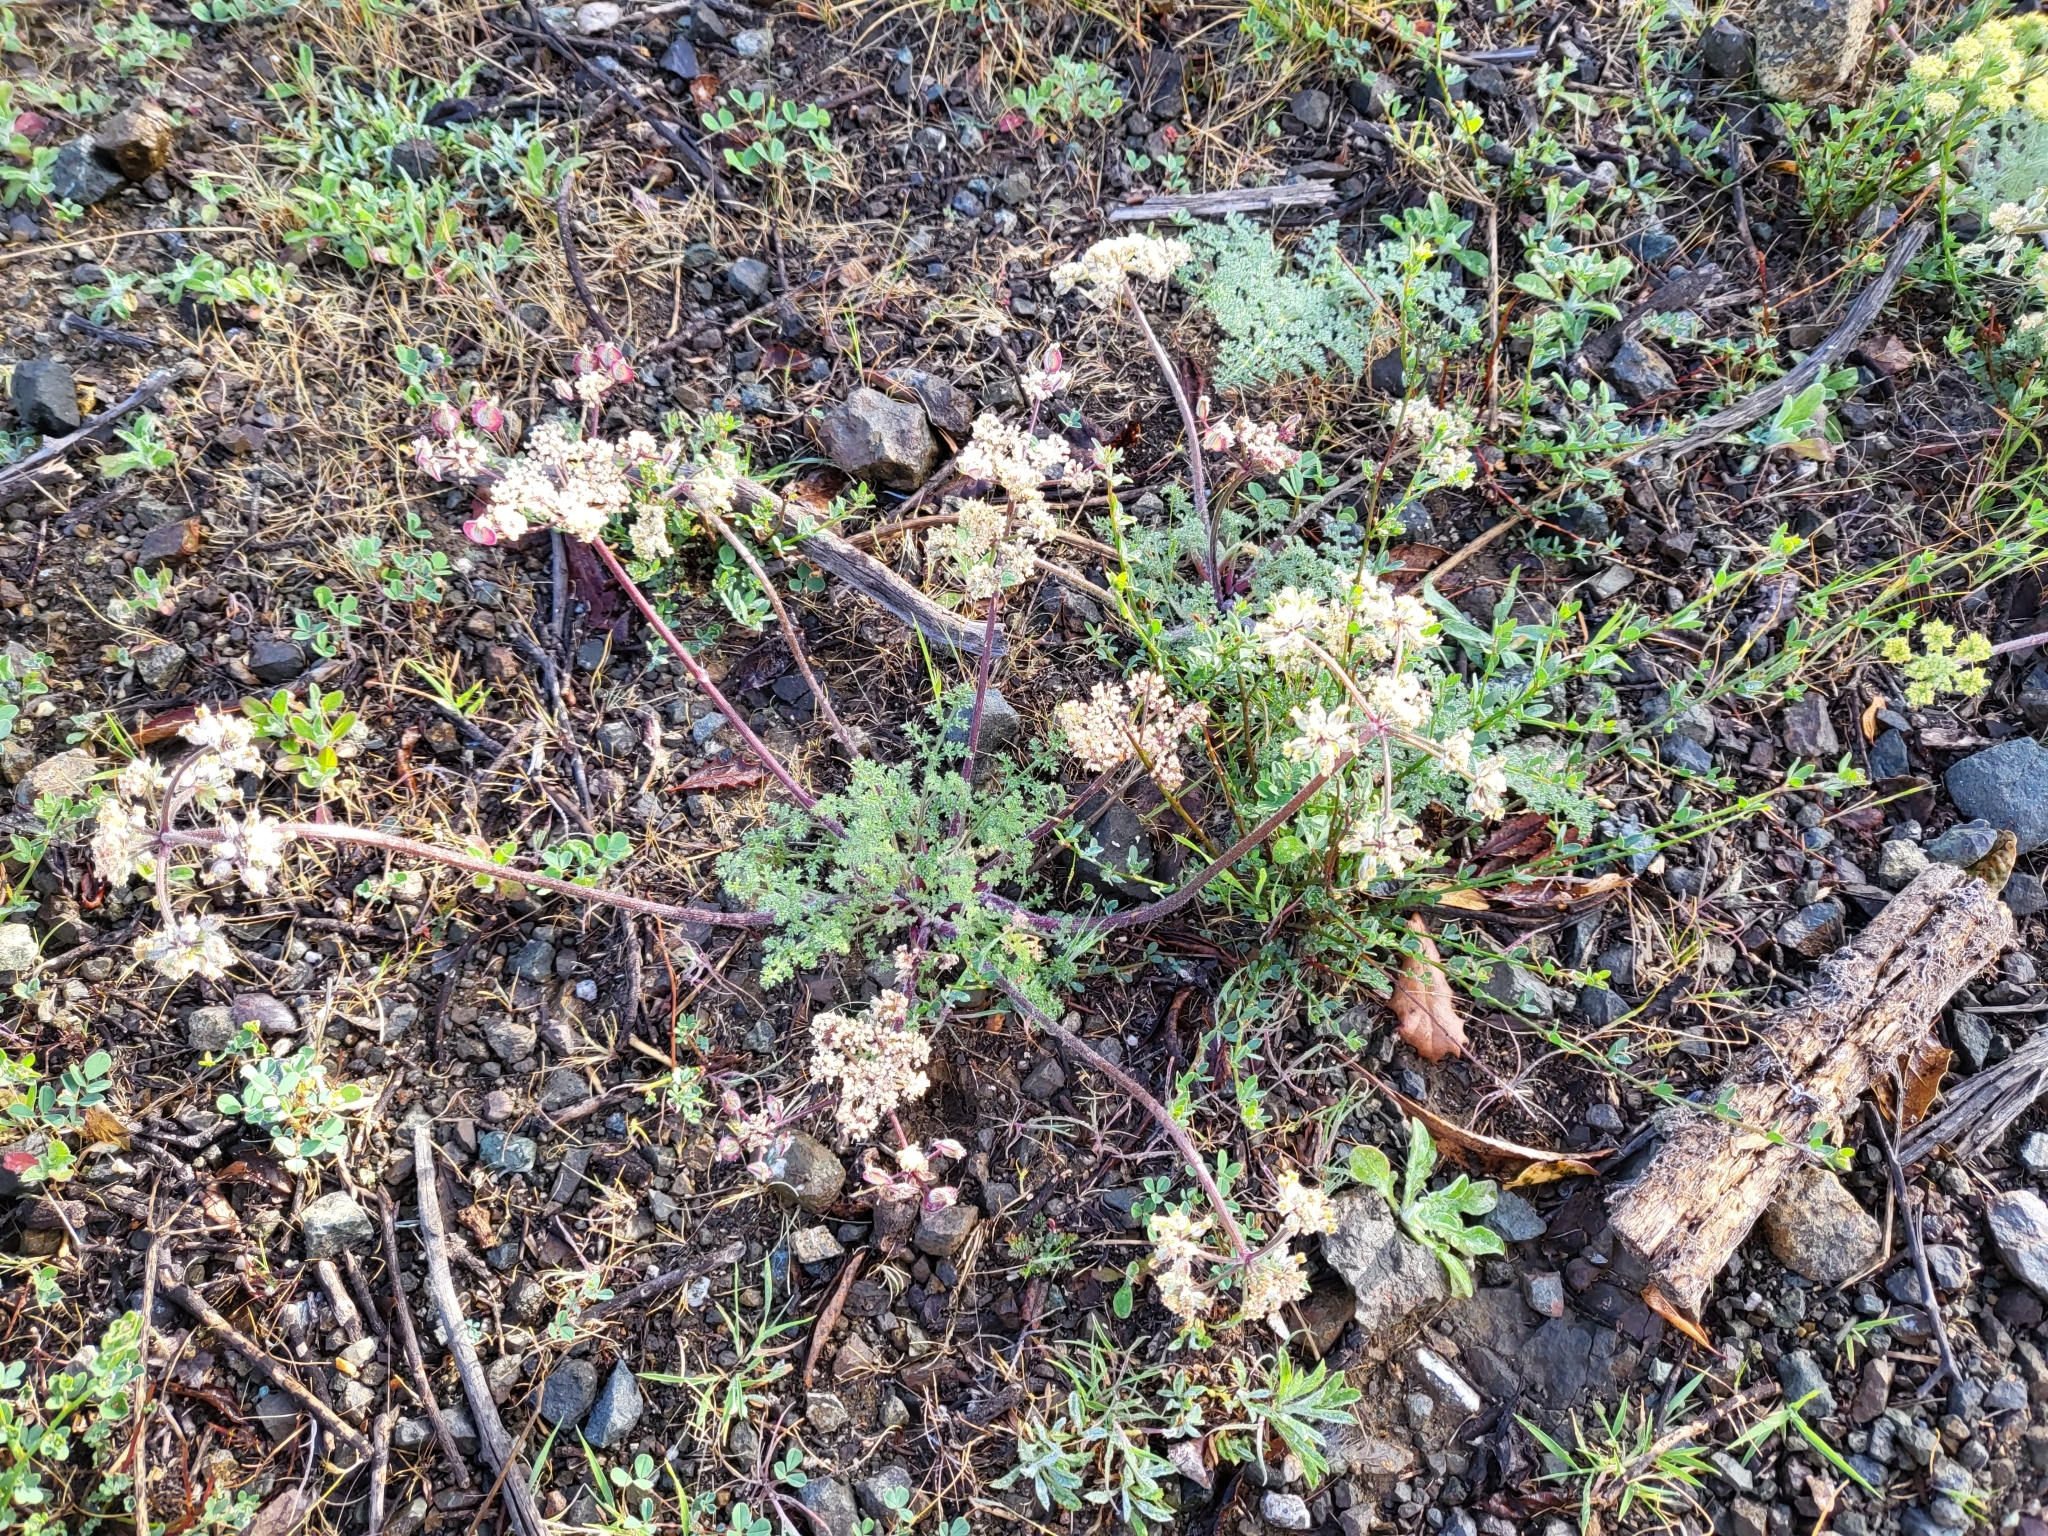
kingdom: Plantae
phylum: Tracheophyta
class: Magnoliopsida
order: Apiales
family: Apiaceae
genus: Lomatium
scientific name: Lomatium dasycarpum
